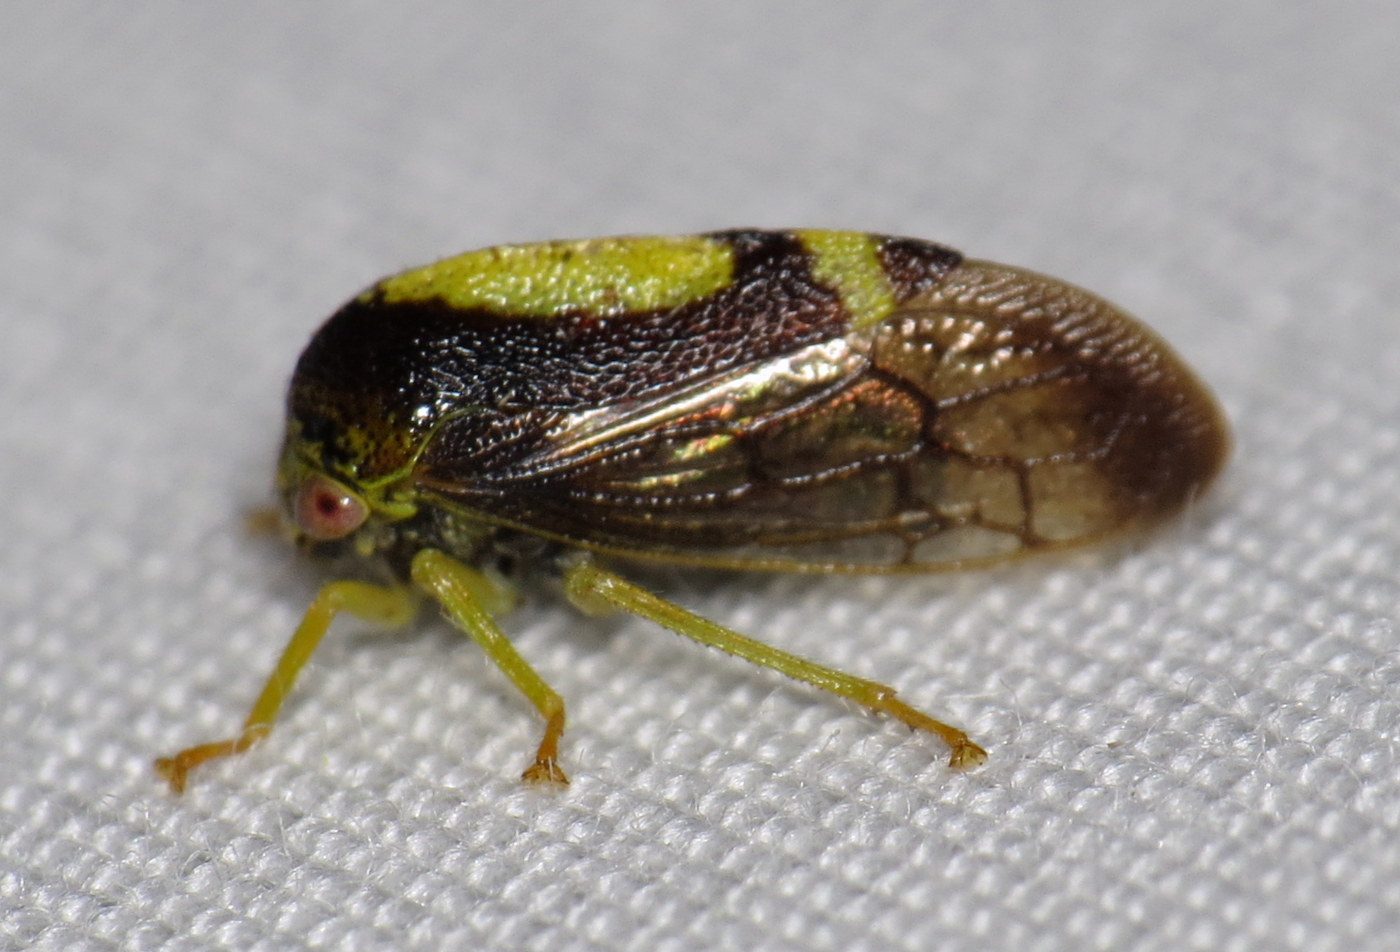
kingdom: Animalia
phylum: Arthropoda
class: Insecta
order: Hemiptera
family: Membracidae
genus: Atymna
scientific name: Atymna querci
